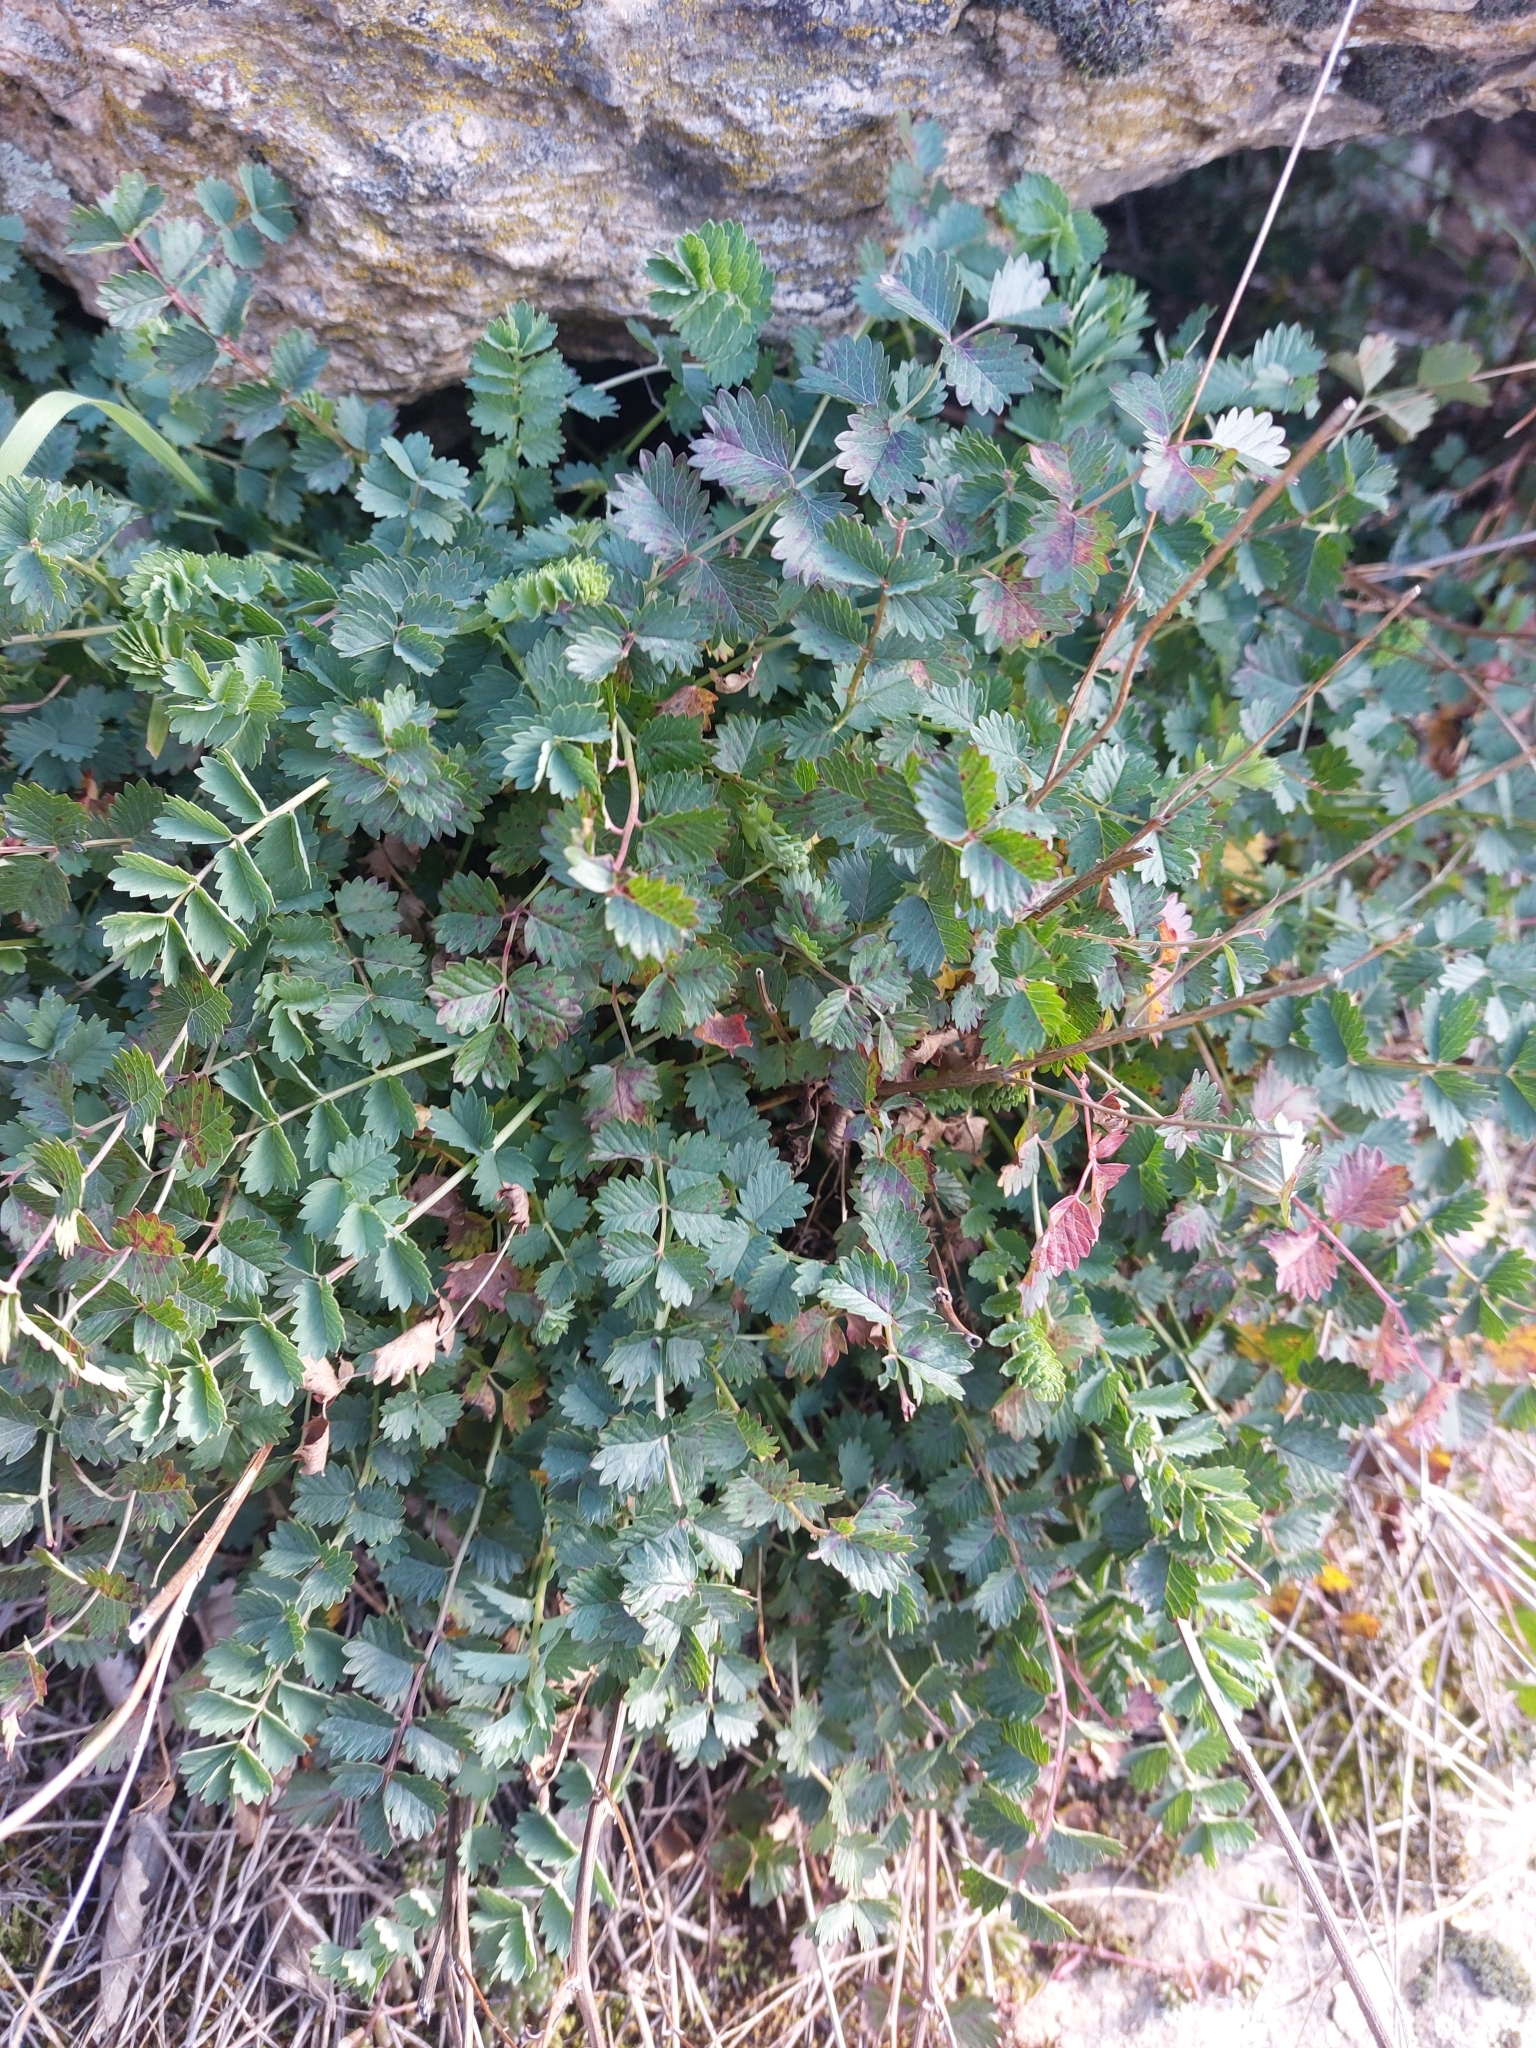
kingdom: Plantae
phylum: Tracheophyta
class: Magnoliopsida
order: Rosales
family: Rosaceae
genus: Poterium
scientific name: Poterium sanguisorba
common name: Salad burnet
